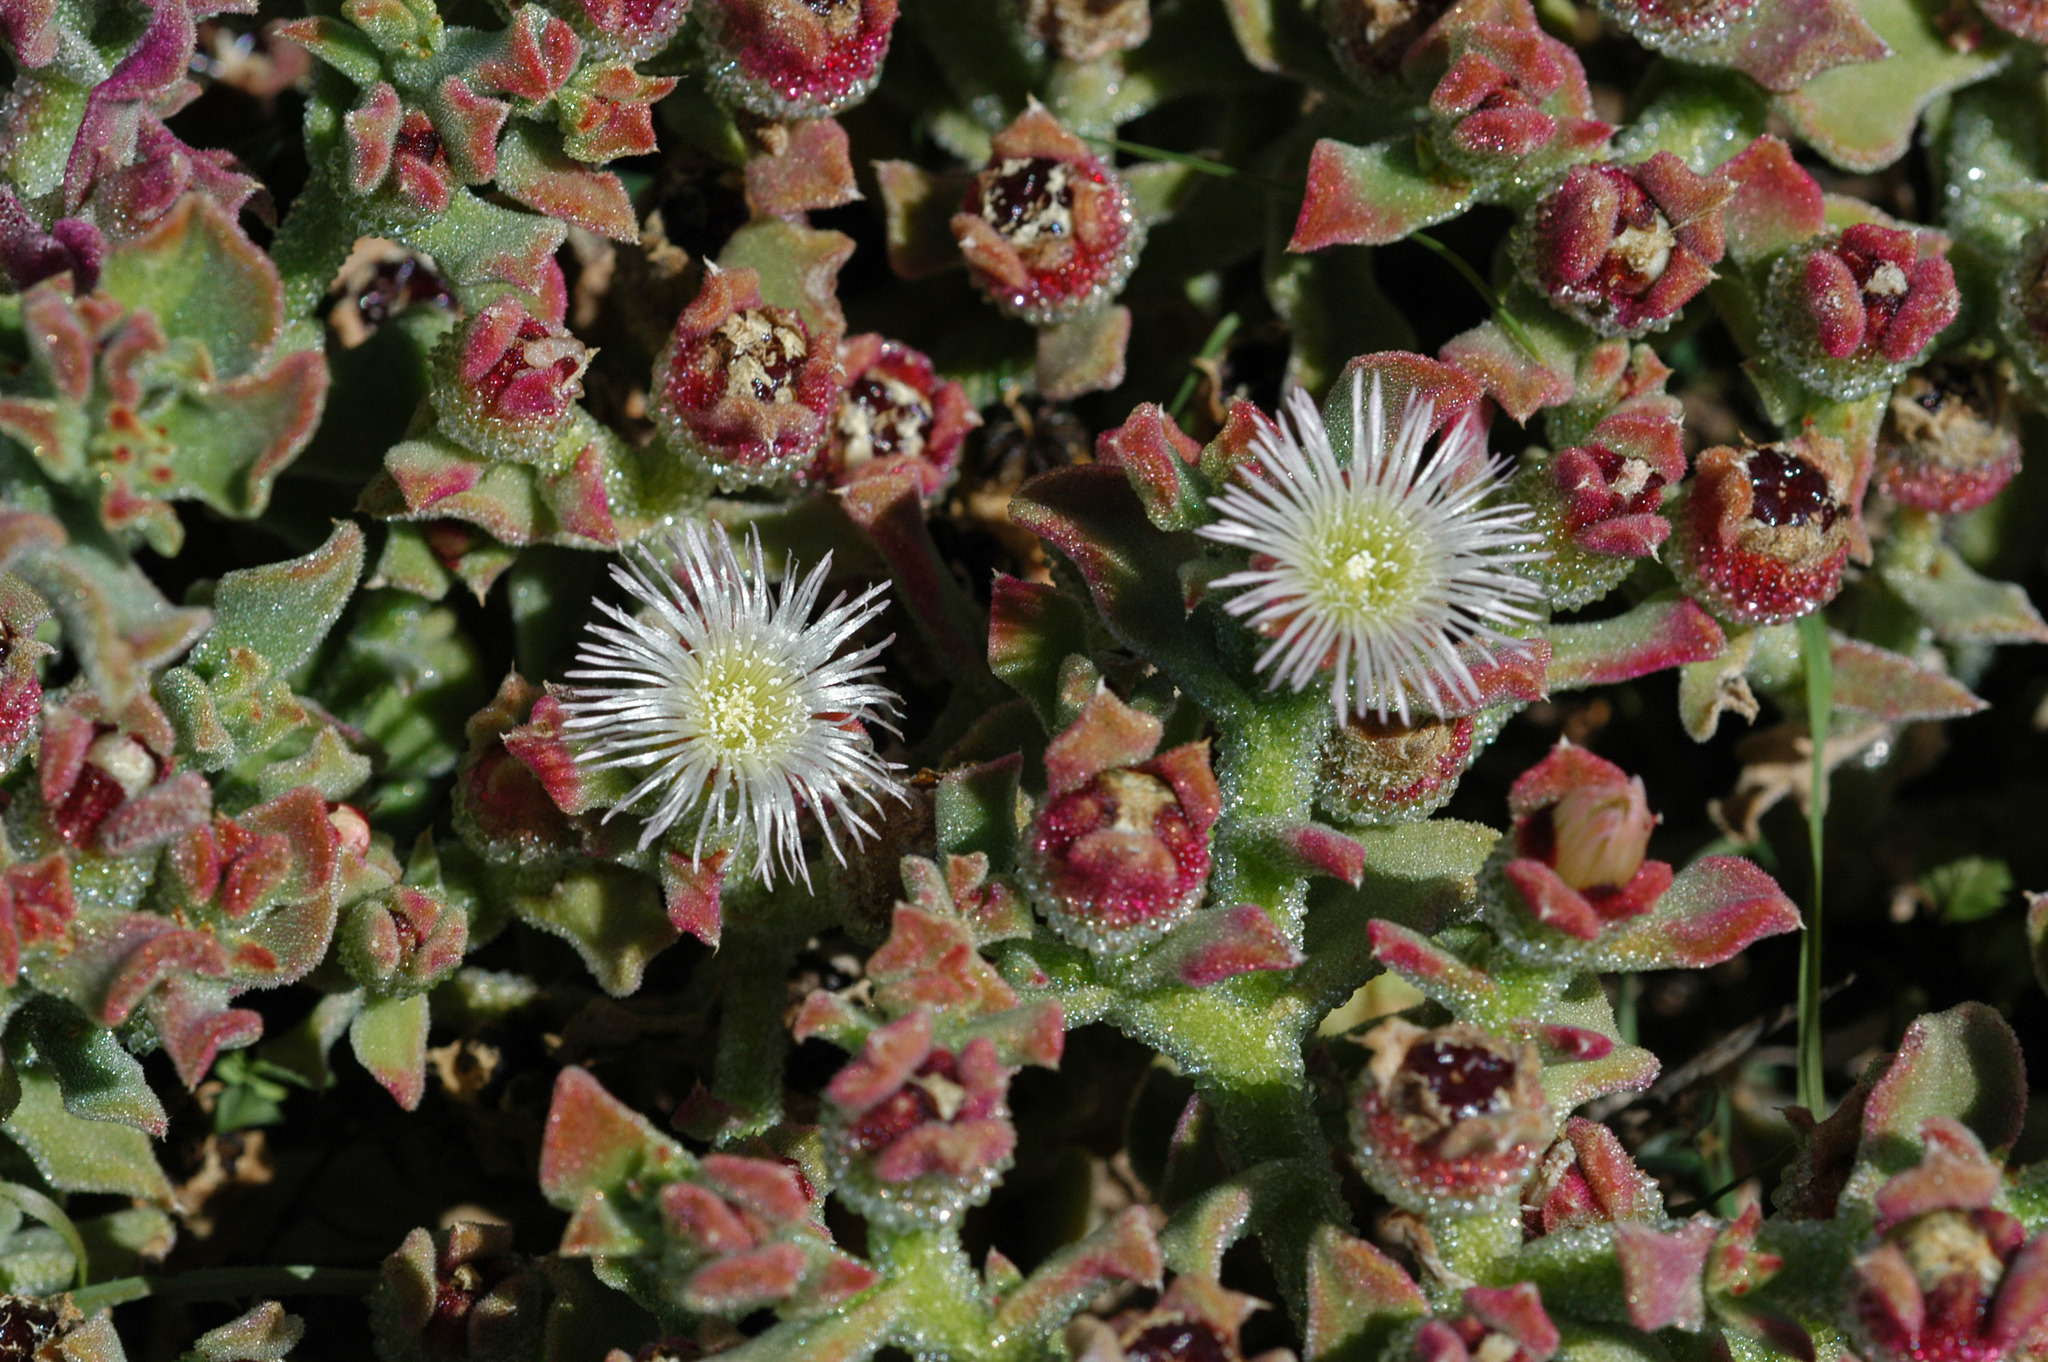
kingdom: Plantae
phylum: Tracheophyta
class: Magnoliopsida
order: Caryophyllales
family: Aizoaceae
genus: Mesembryanthemum
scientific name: Mesembryanthemum crystallinum
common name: Common iceplant
